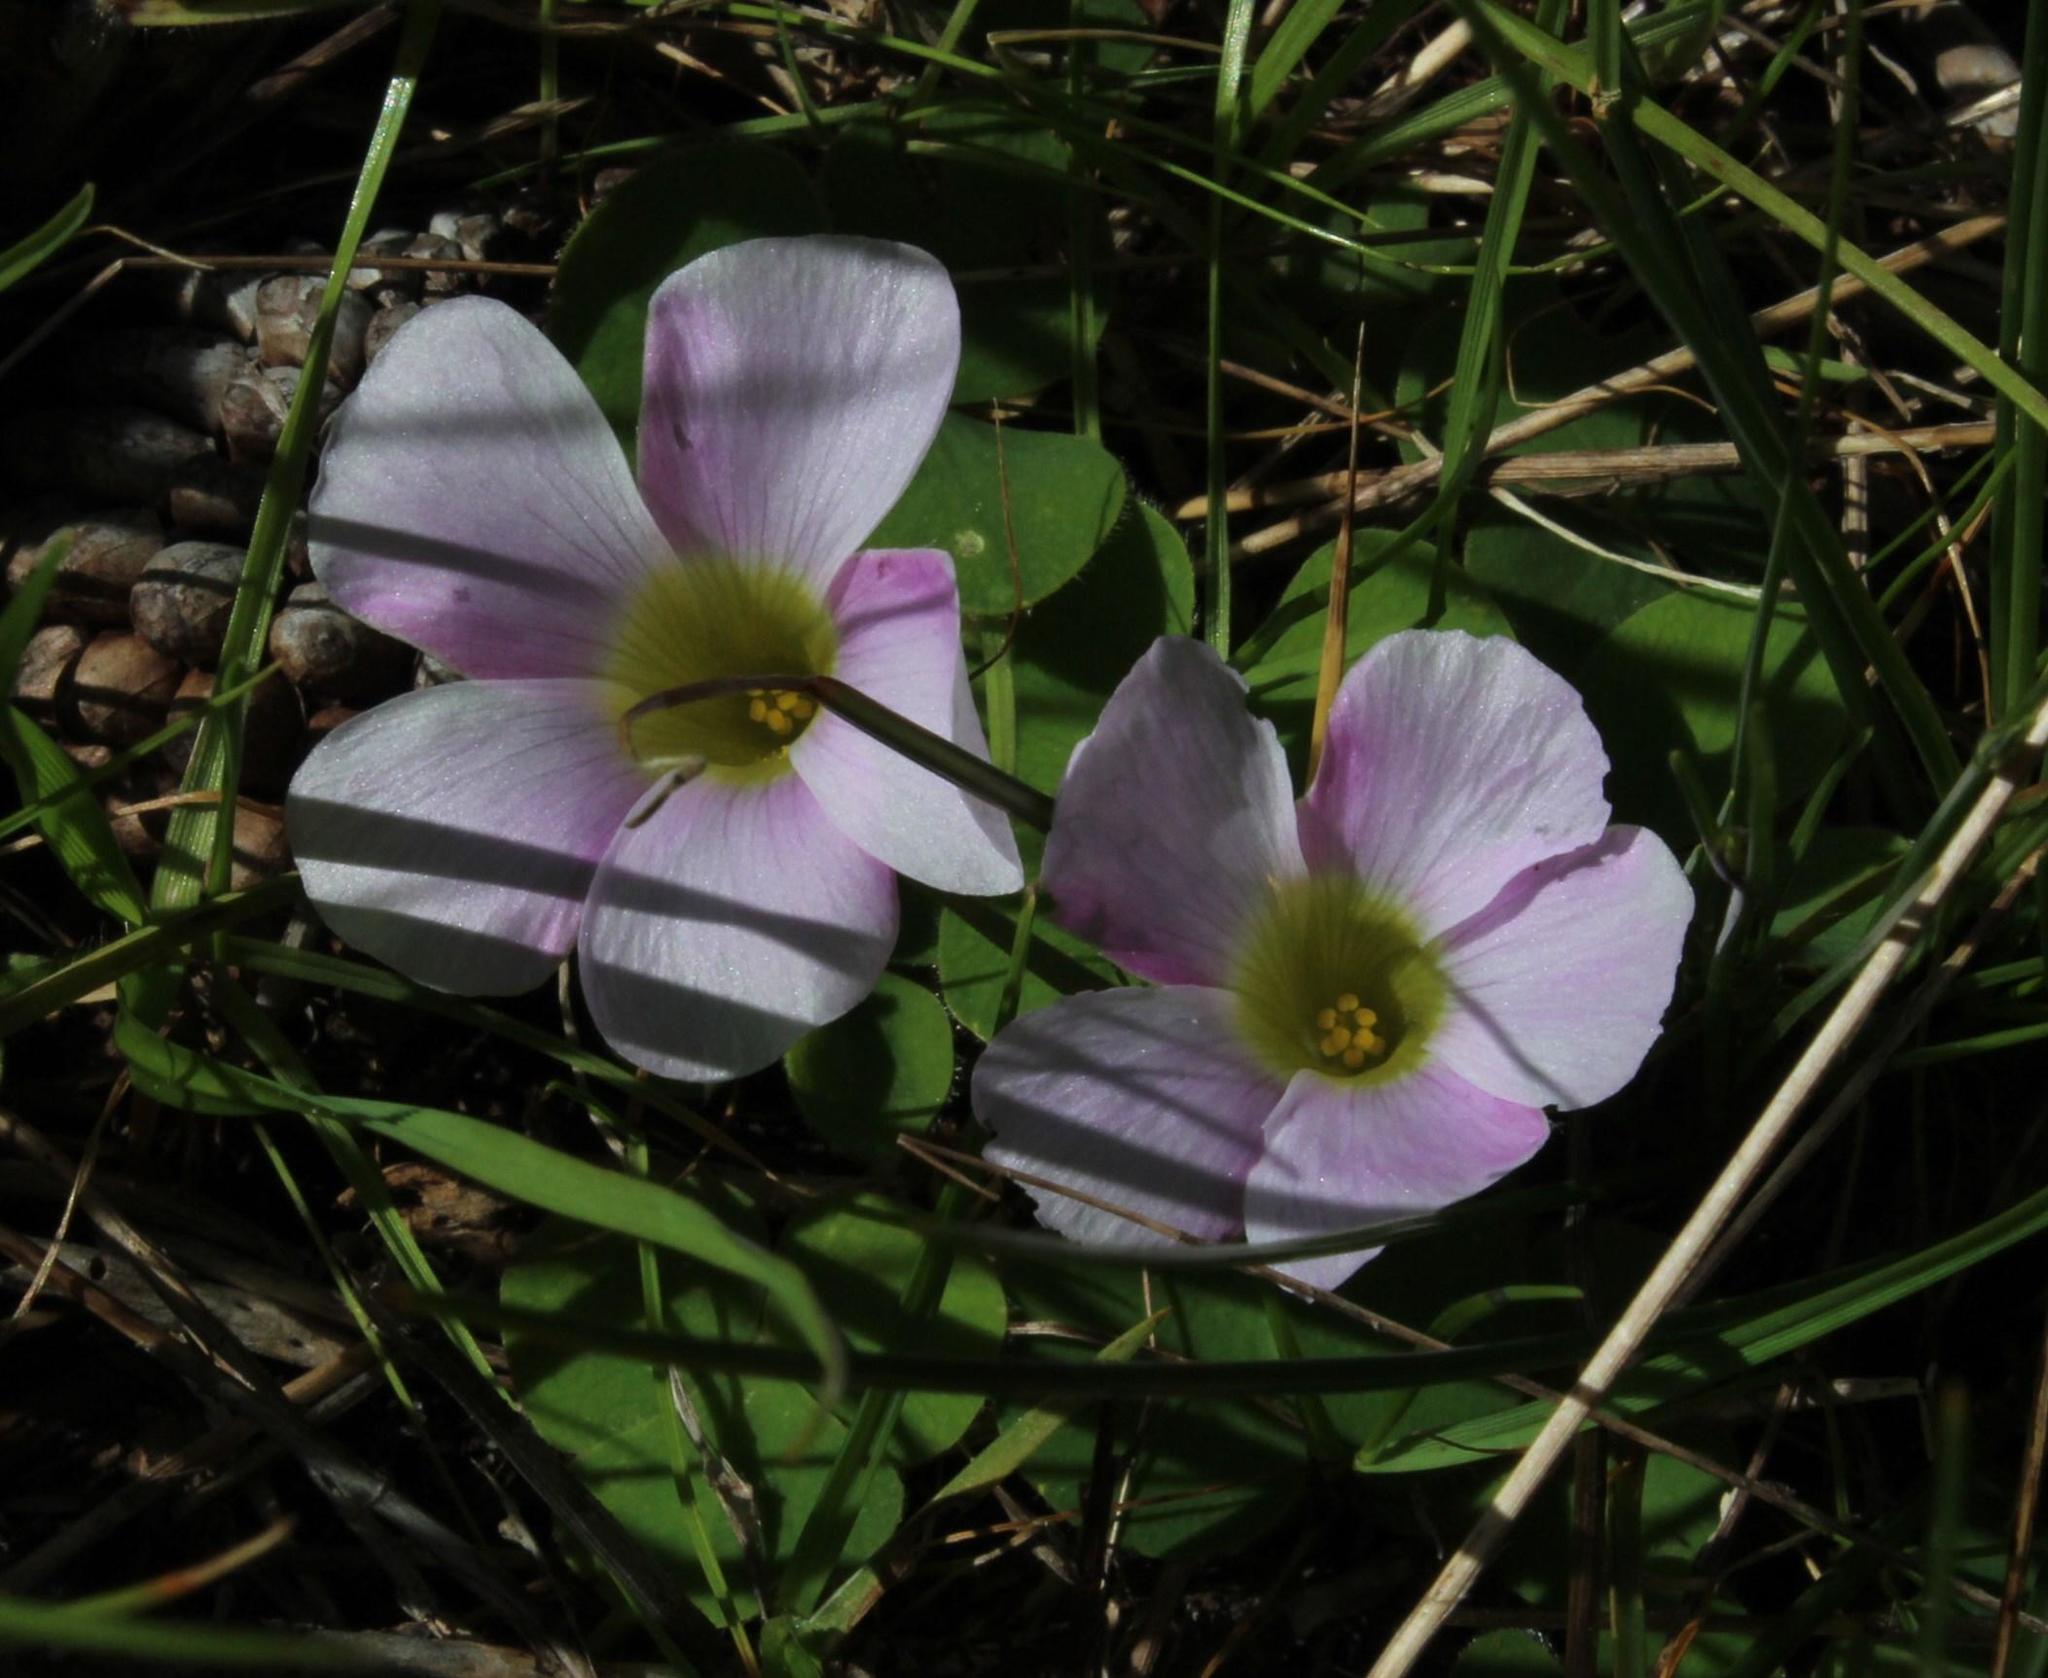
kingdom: Plantae
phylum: Tracheophyta
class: Magnoliopsida
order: Oxalidales
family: Oxalidaceae
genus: Oxalis
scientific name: Oxalis purpurea
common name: Purple woodsorrel
